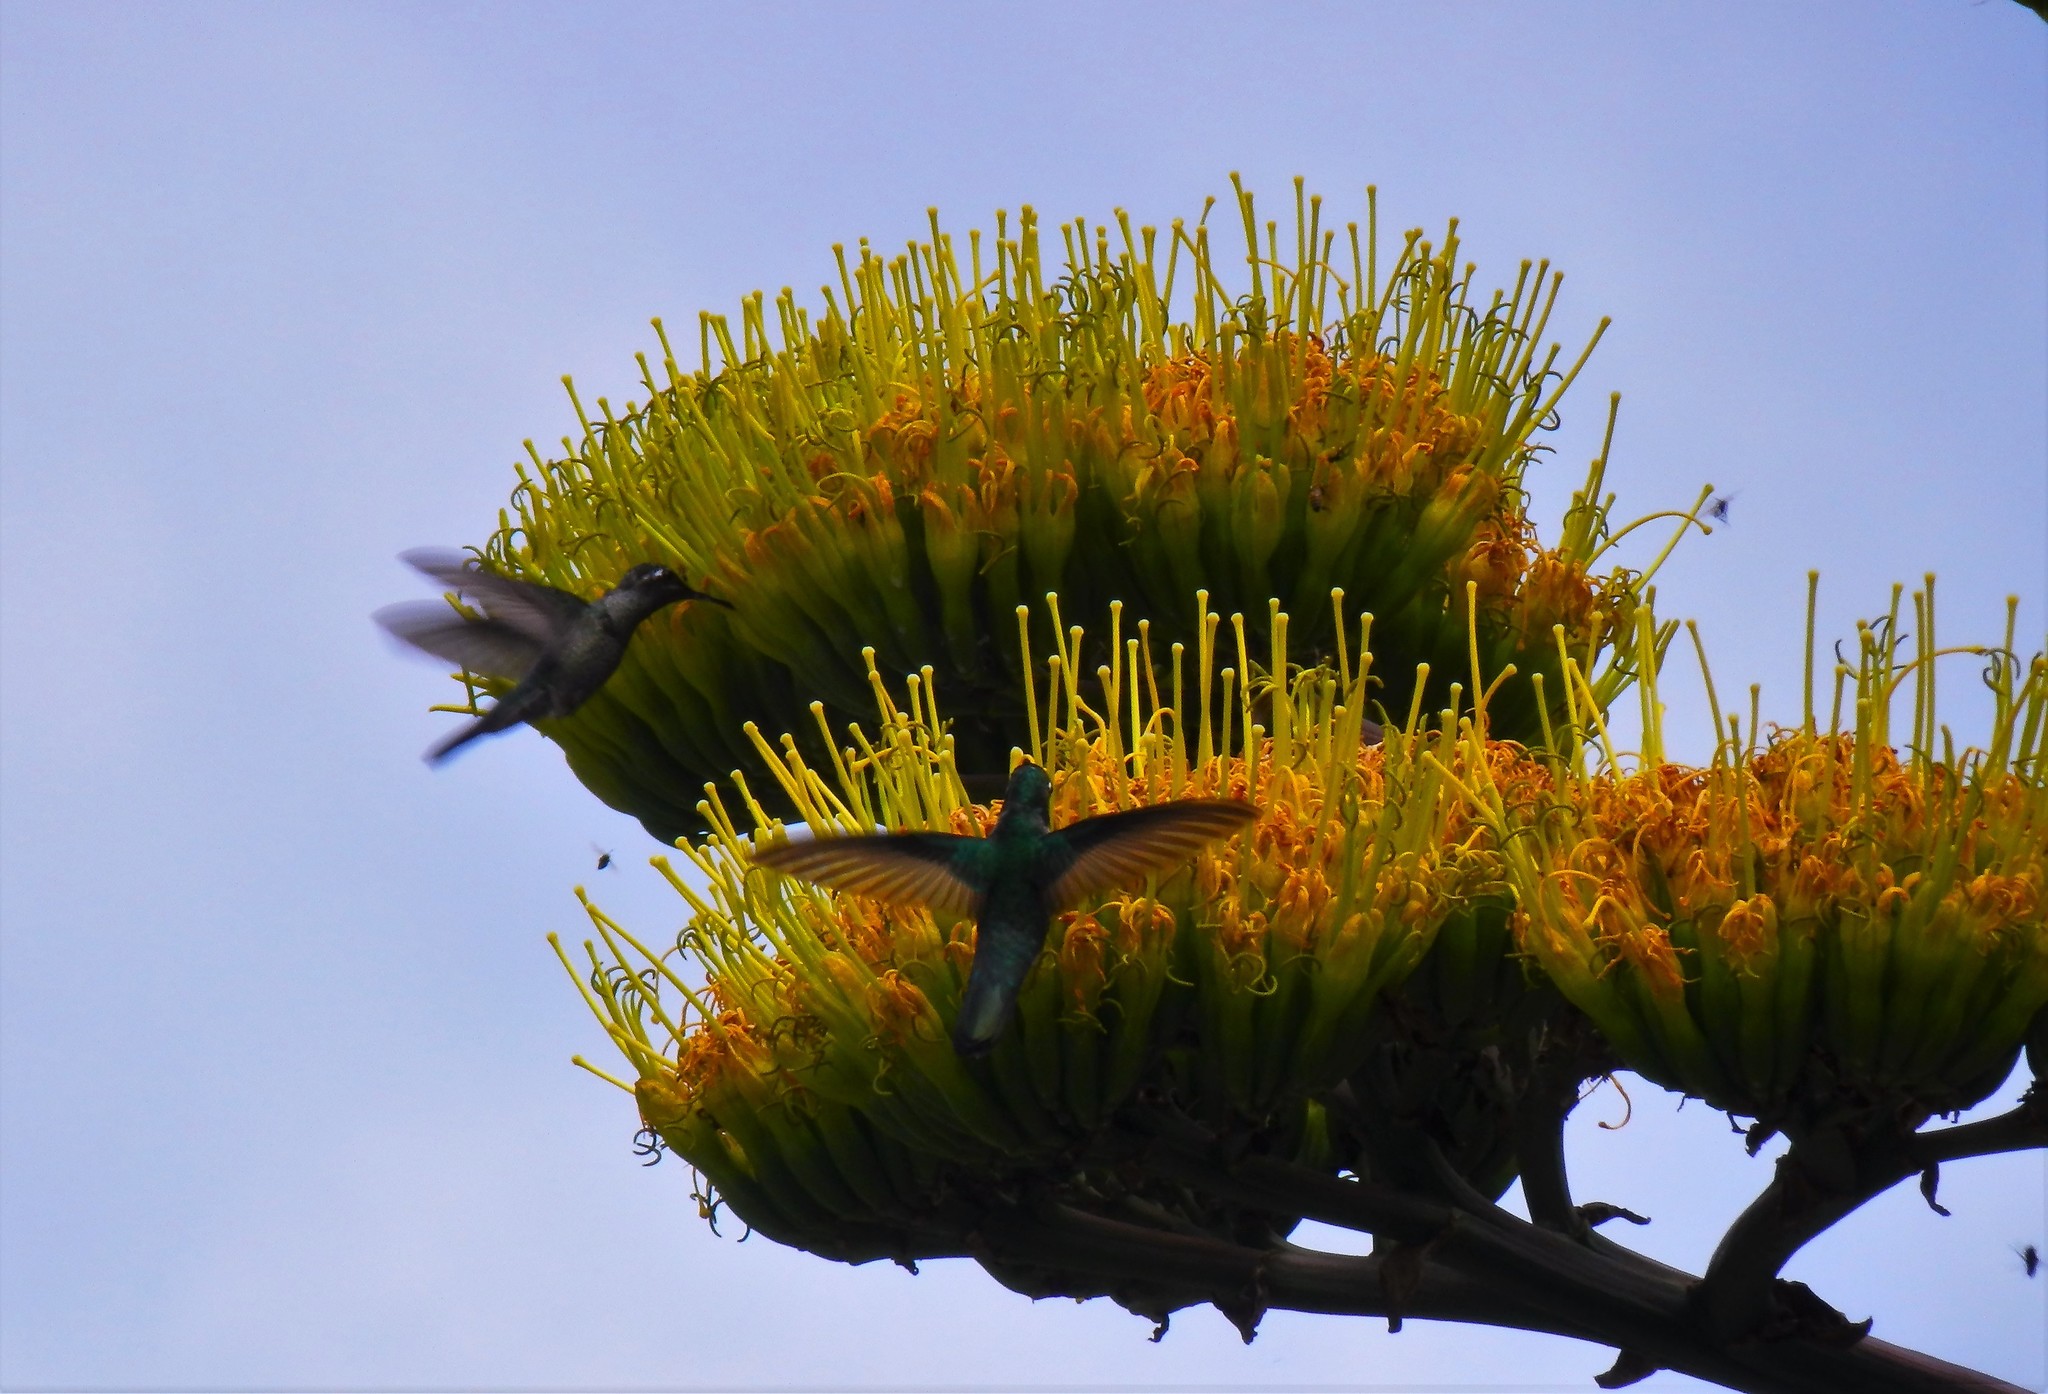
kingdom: Animalia
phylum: Chordata
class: Aves
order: Apodiformes
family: Trochilidae
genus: Eugenes
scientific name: Eugenes fulgens
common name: Magnificent hummingbird
